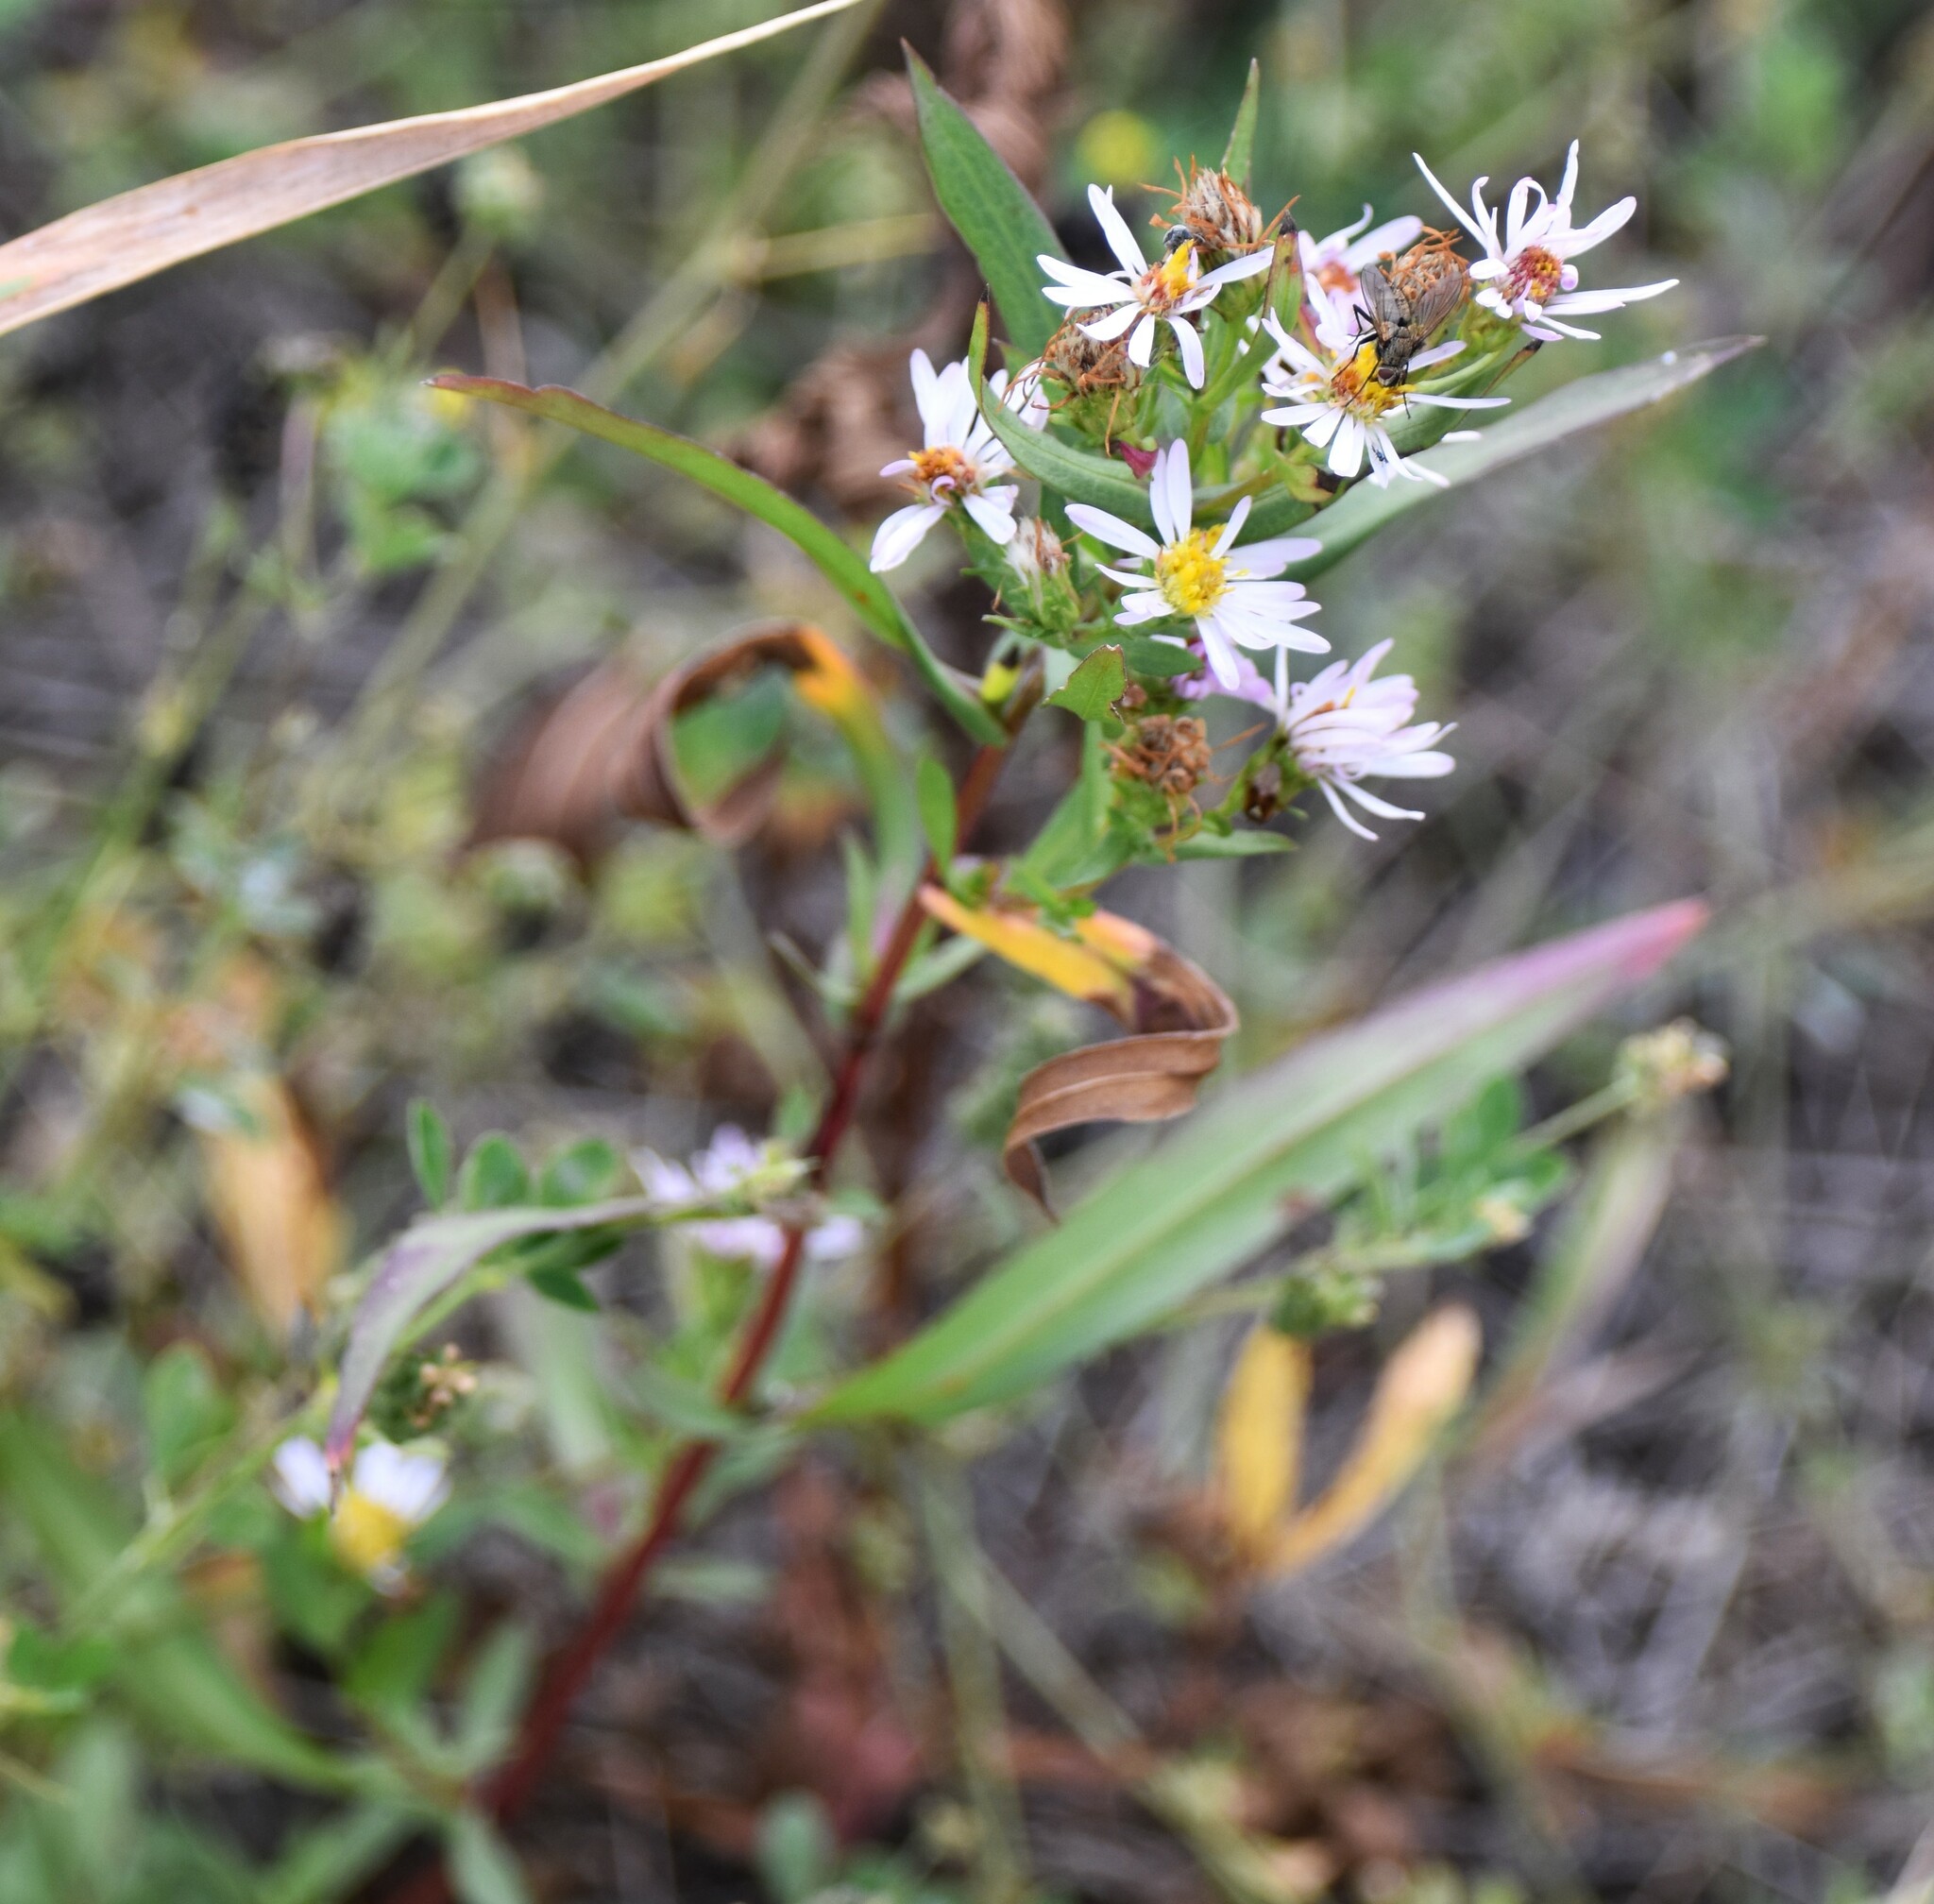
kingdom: Plantae
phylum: Tracheophyta
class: Magnoliopsida
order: Asterales
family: Asteraceae
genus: Symphyotrichum
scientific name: Symphyotrichum lanceolatum
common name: Panicled aster
